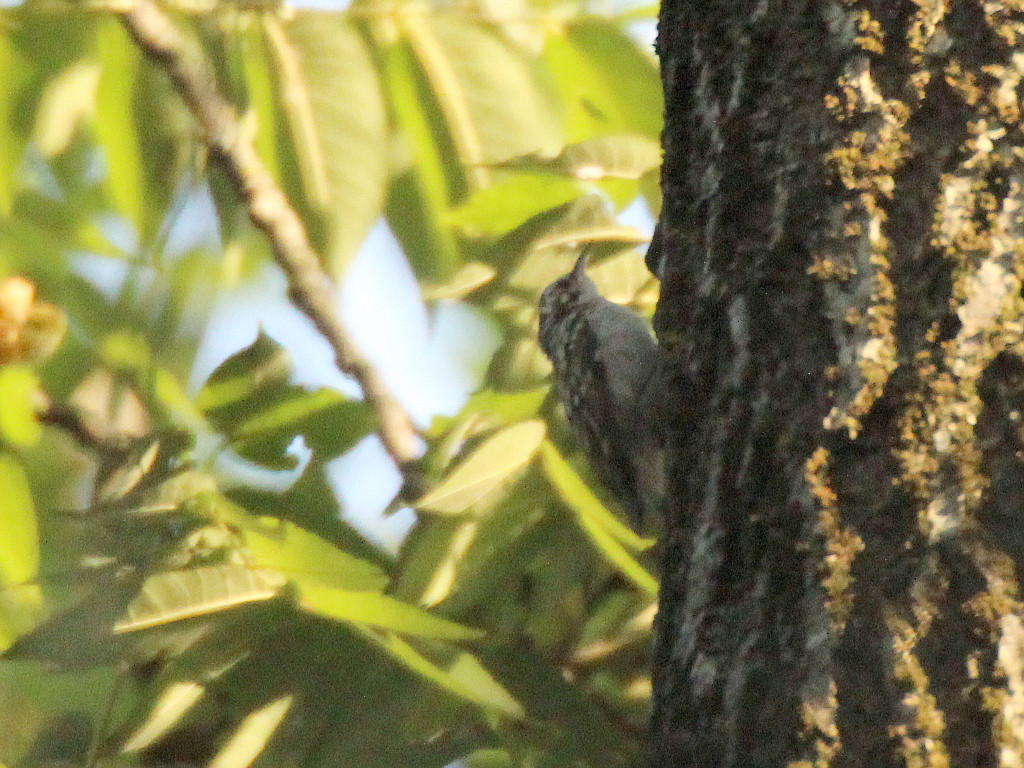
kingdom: Animalia
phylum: Chordata
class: Aves
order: Passeriformes
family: Certhiidae
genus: Certhia
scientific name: Certhia familiaris
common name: Eurasian treecreeper
